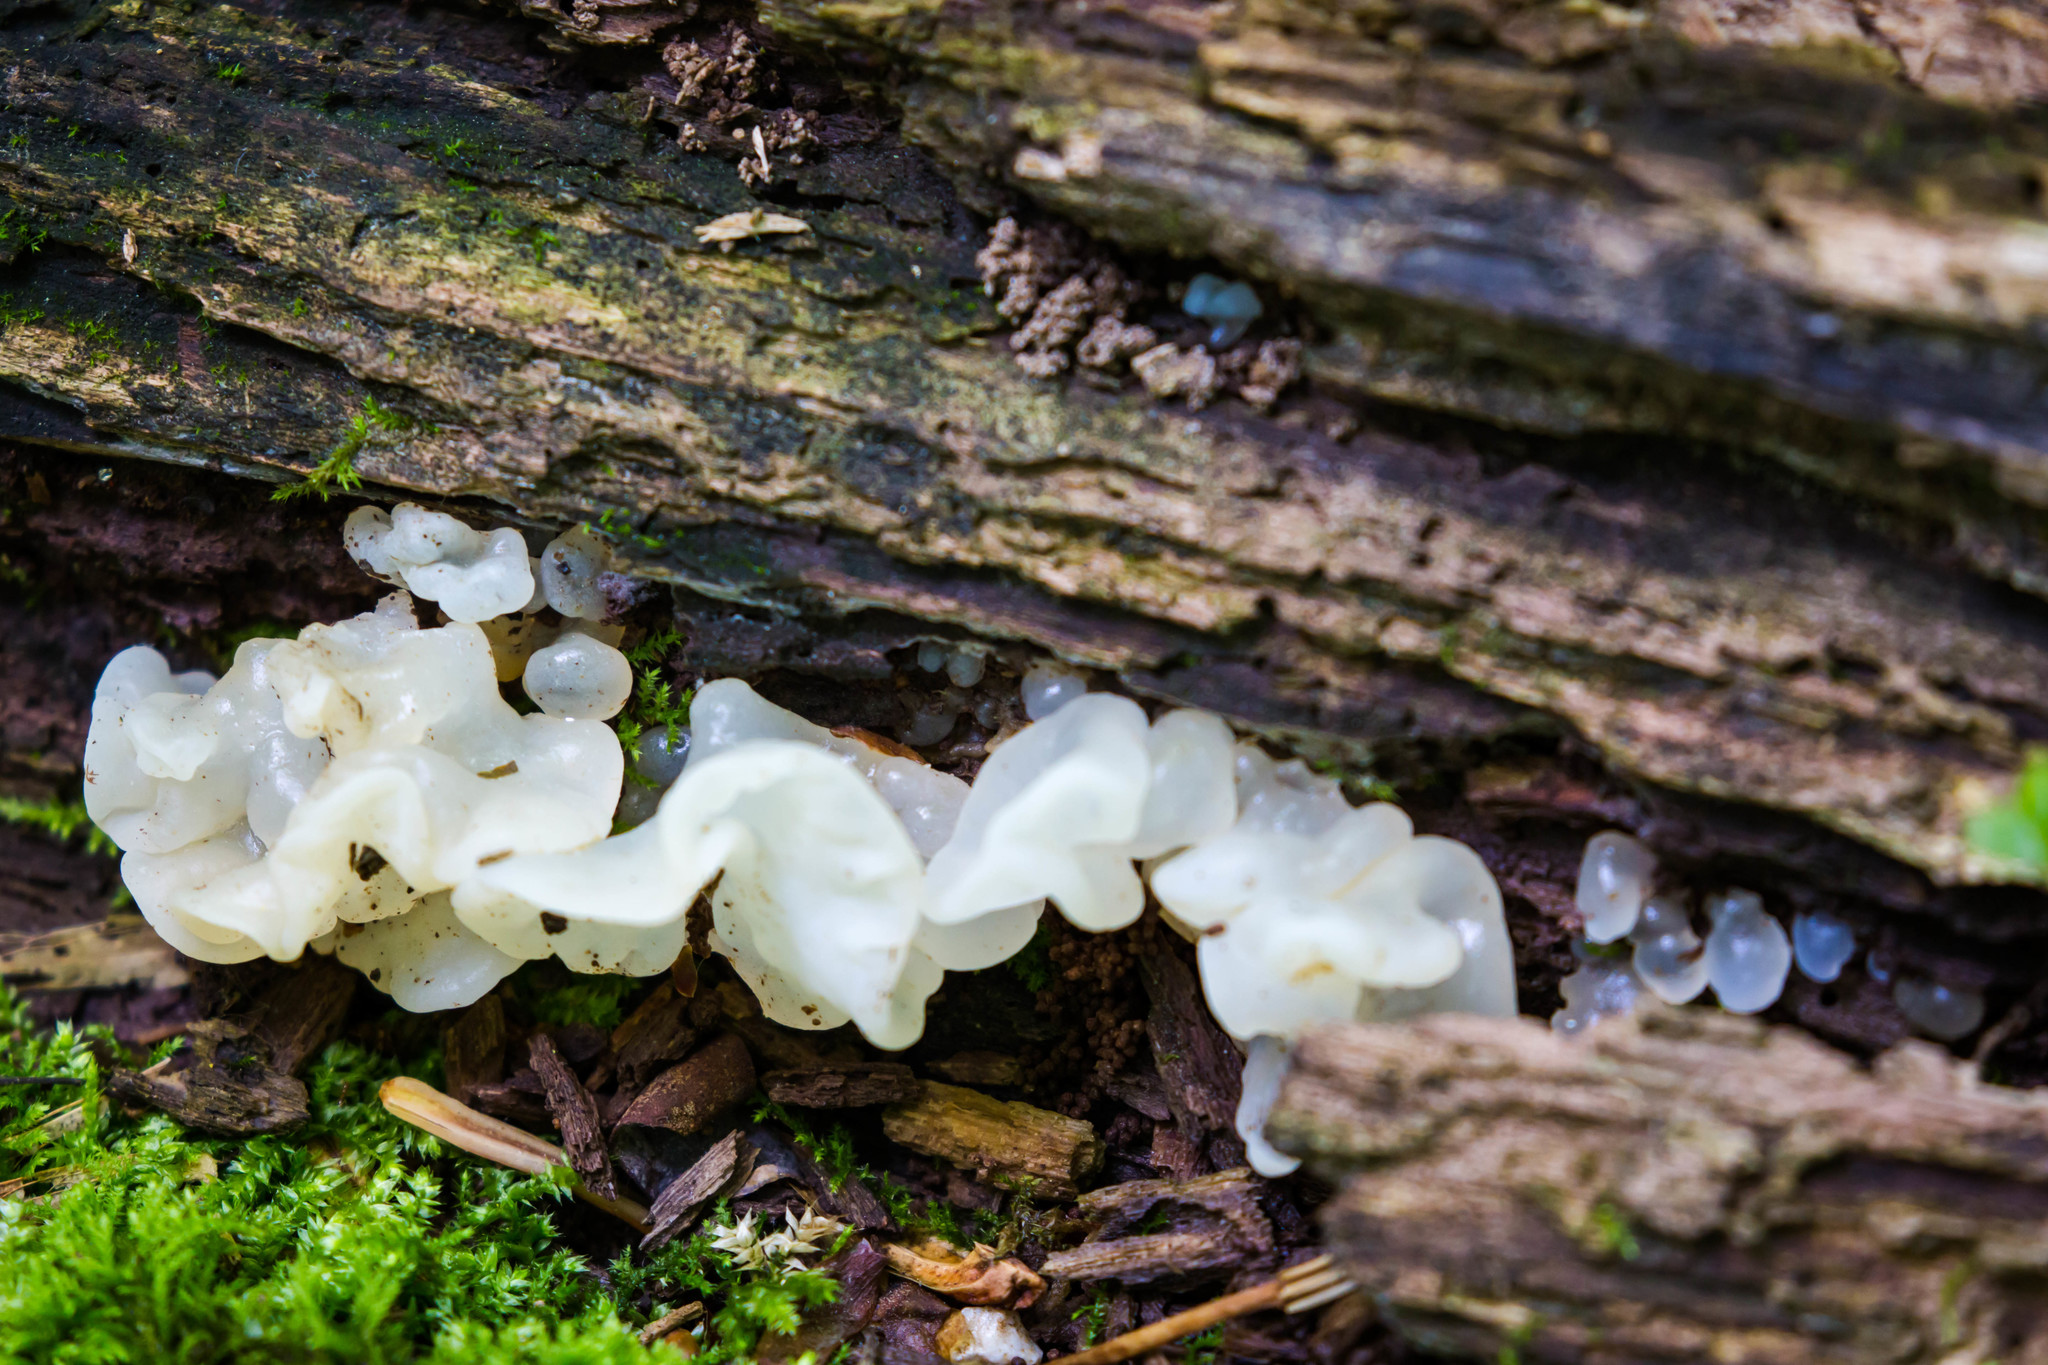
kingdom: Fungi
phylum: Basidiomycota
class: Agaricomycetes
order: Auriculariales
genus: Ductifera
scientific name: Ductifera pululahuana
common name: White jelly fungus
